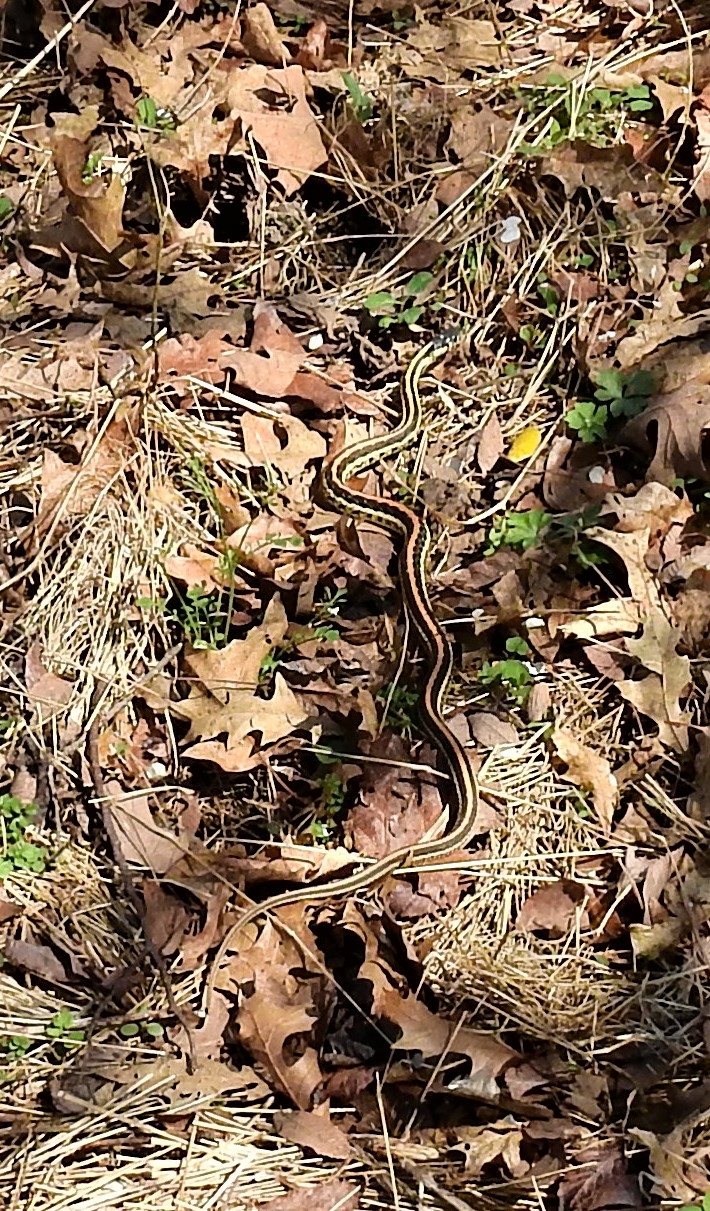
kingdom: Animalia
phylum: Chordata
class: Squamata
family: Colubridae
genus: Thamnophis
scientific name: Thamnophis sirtalis
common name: Common garter snake
